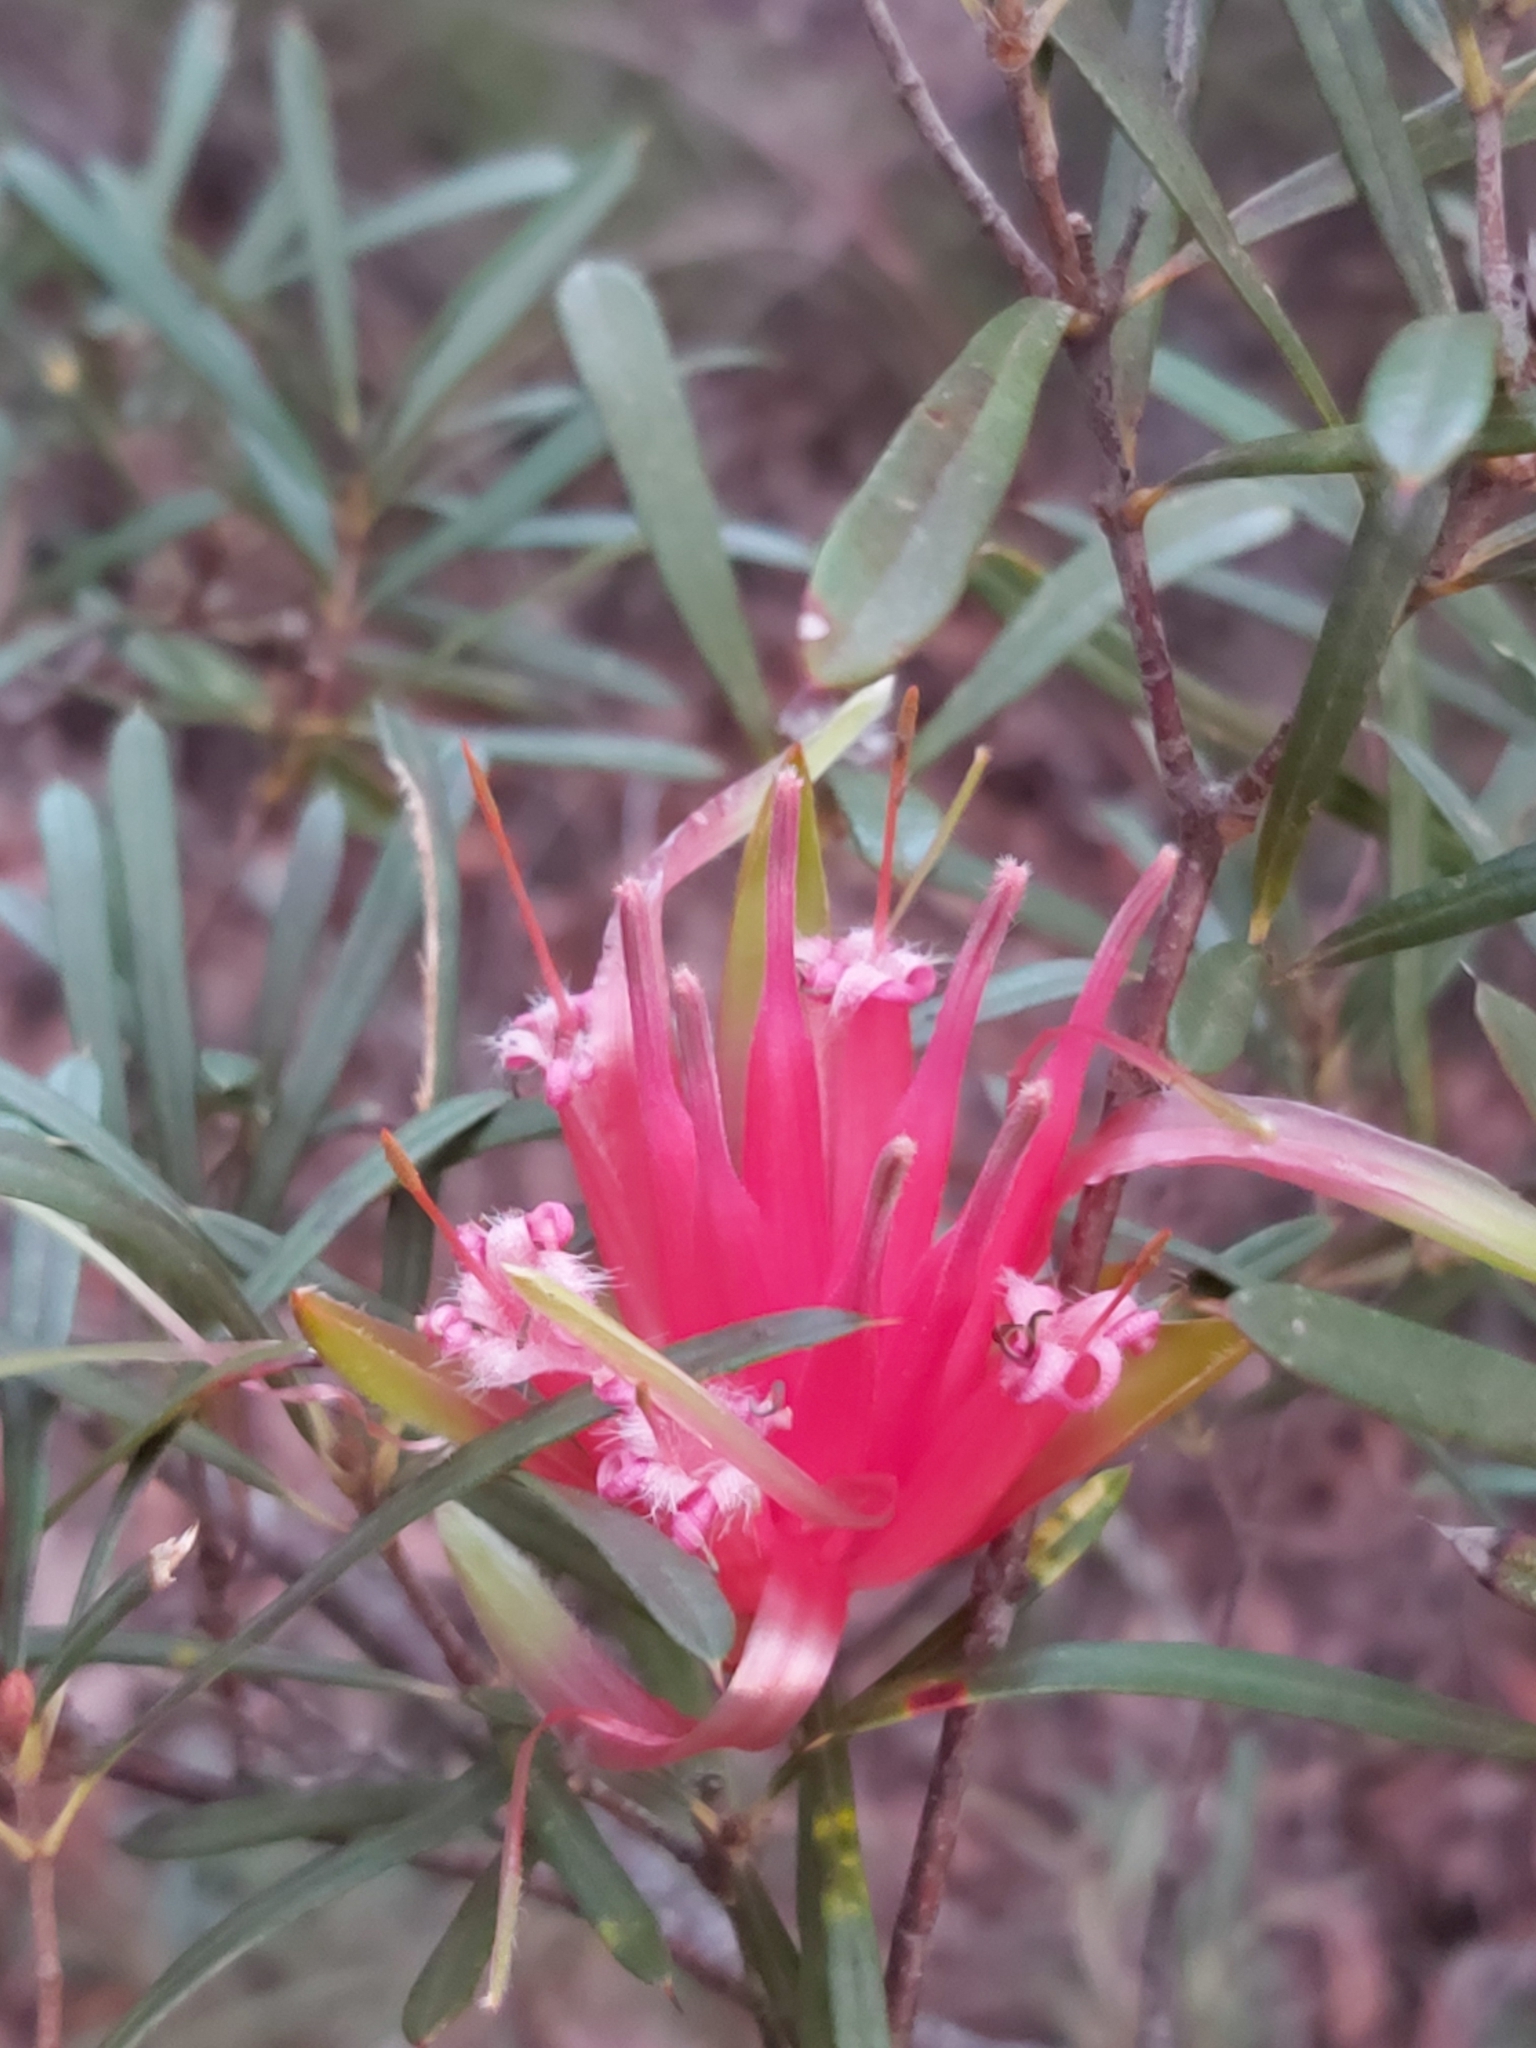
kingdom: Plantae
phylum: Tracheophyta
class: Magnoliopsida
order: Proteales
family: Proteaceae
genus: Lambertia
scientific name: Lambertia formosa
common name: Mountain-devil
